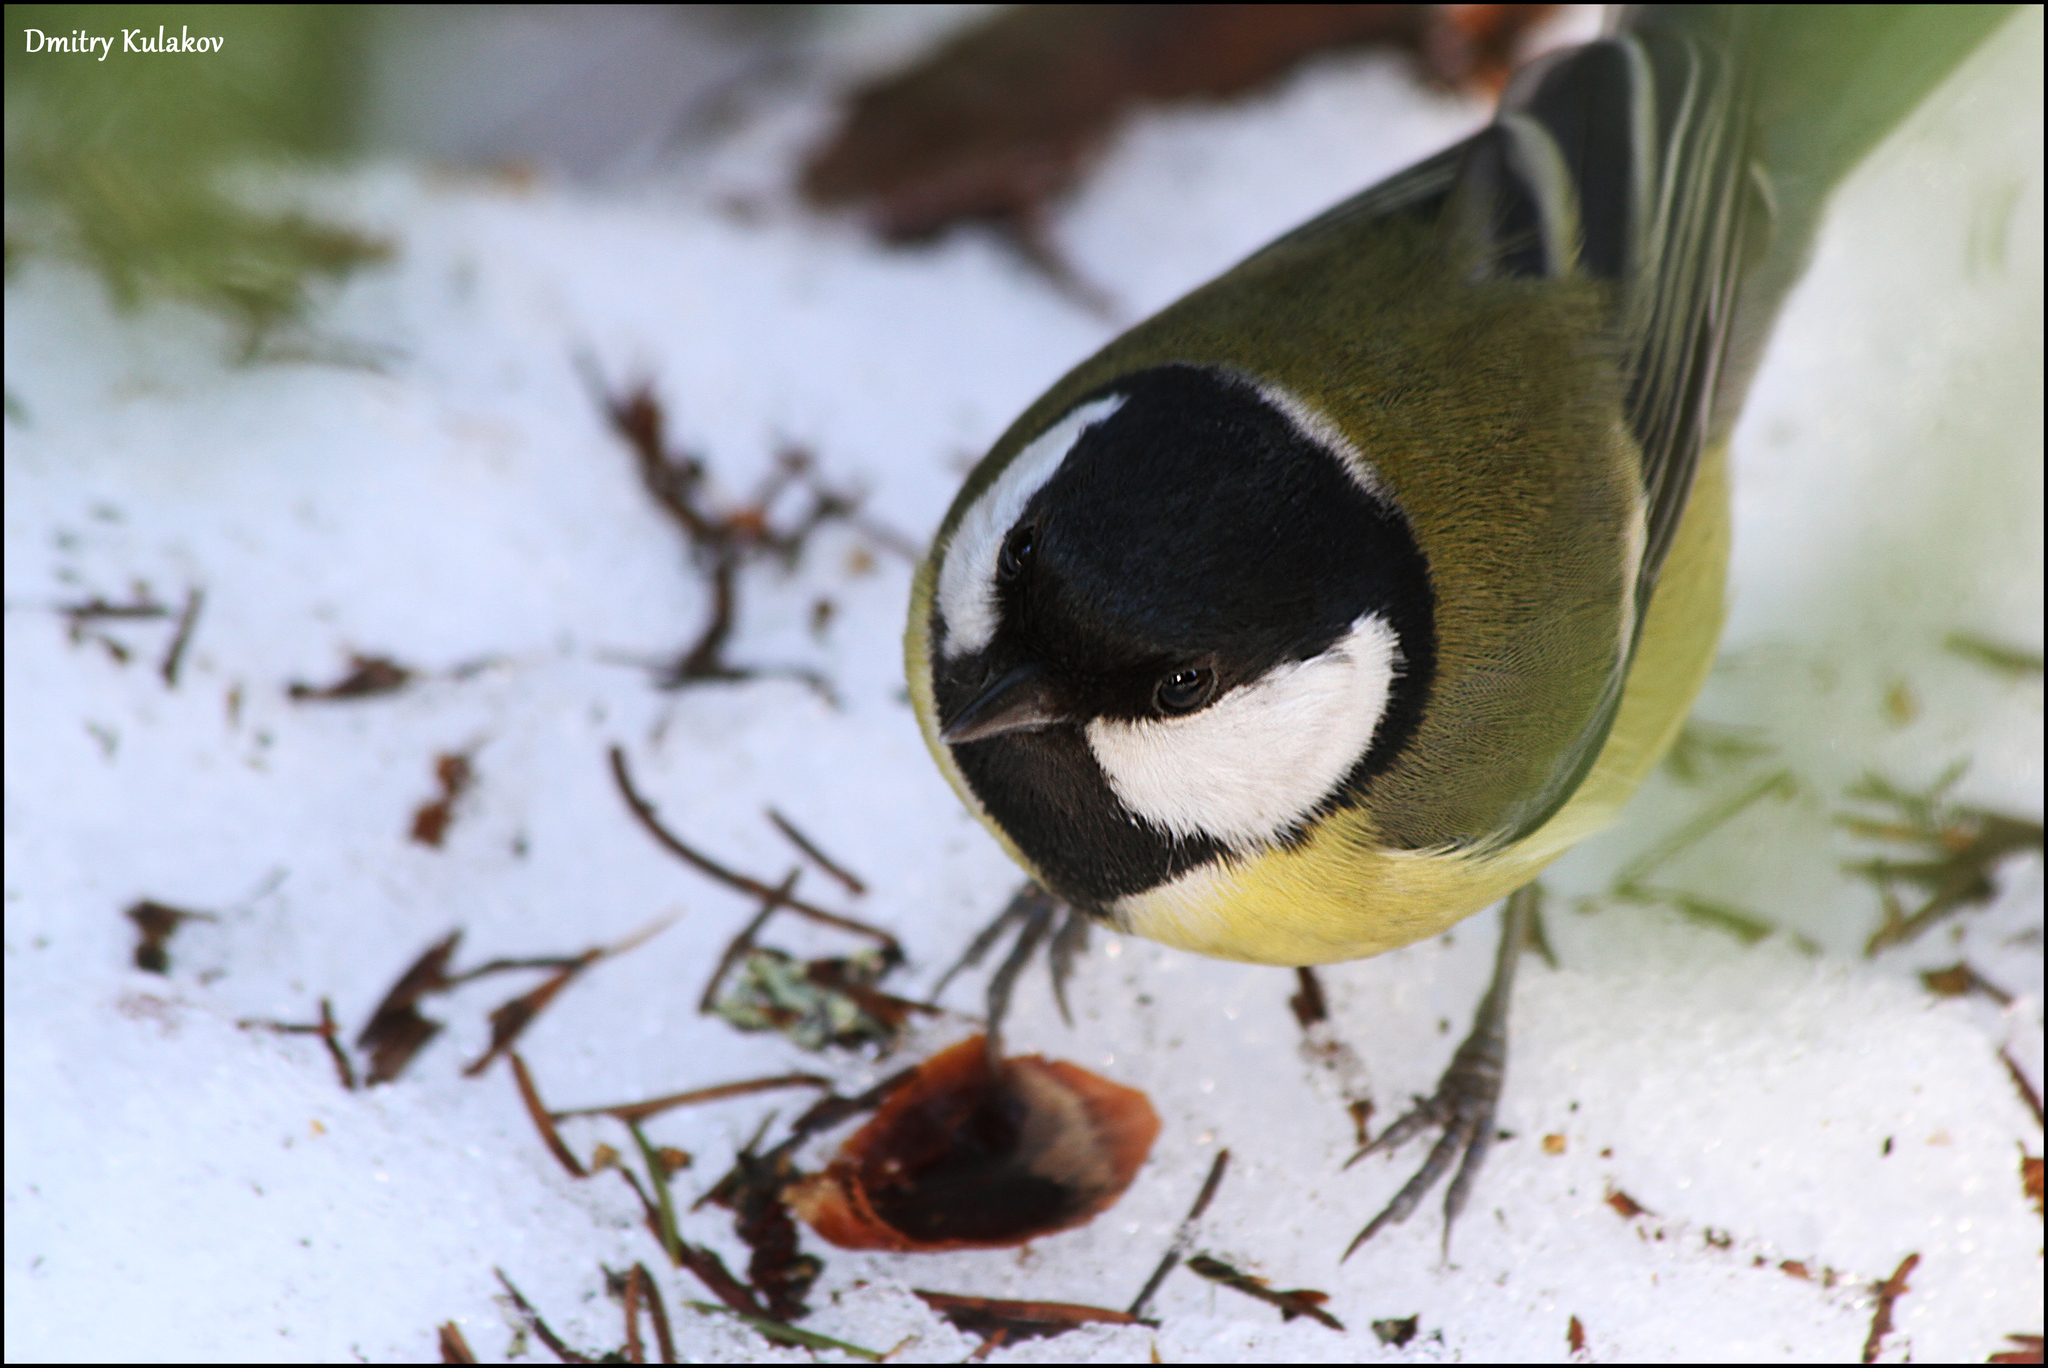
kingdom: Animalia
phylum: Chordata
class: Aves
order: Passeriformes
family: Paridae
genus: Parus
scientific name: Parus major
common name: Great tit
